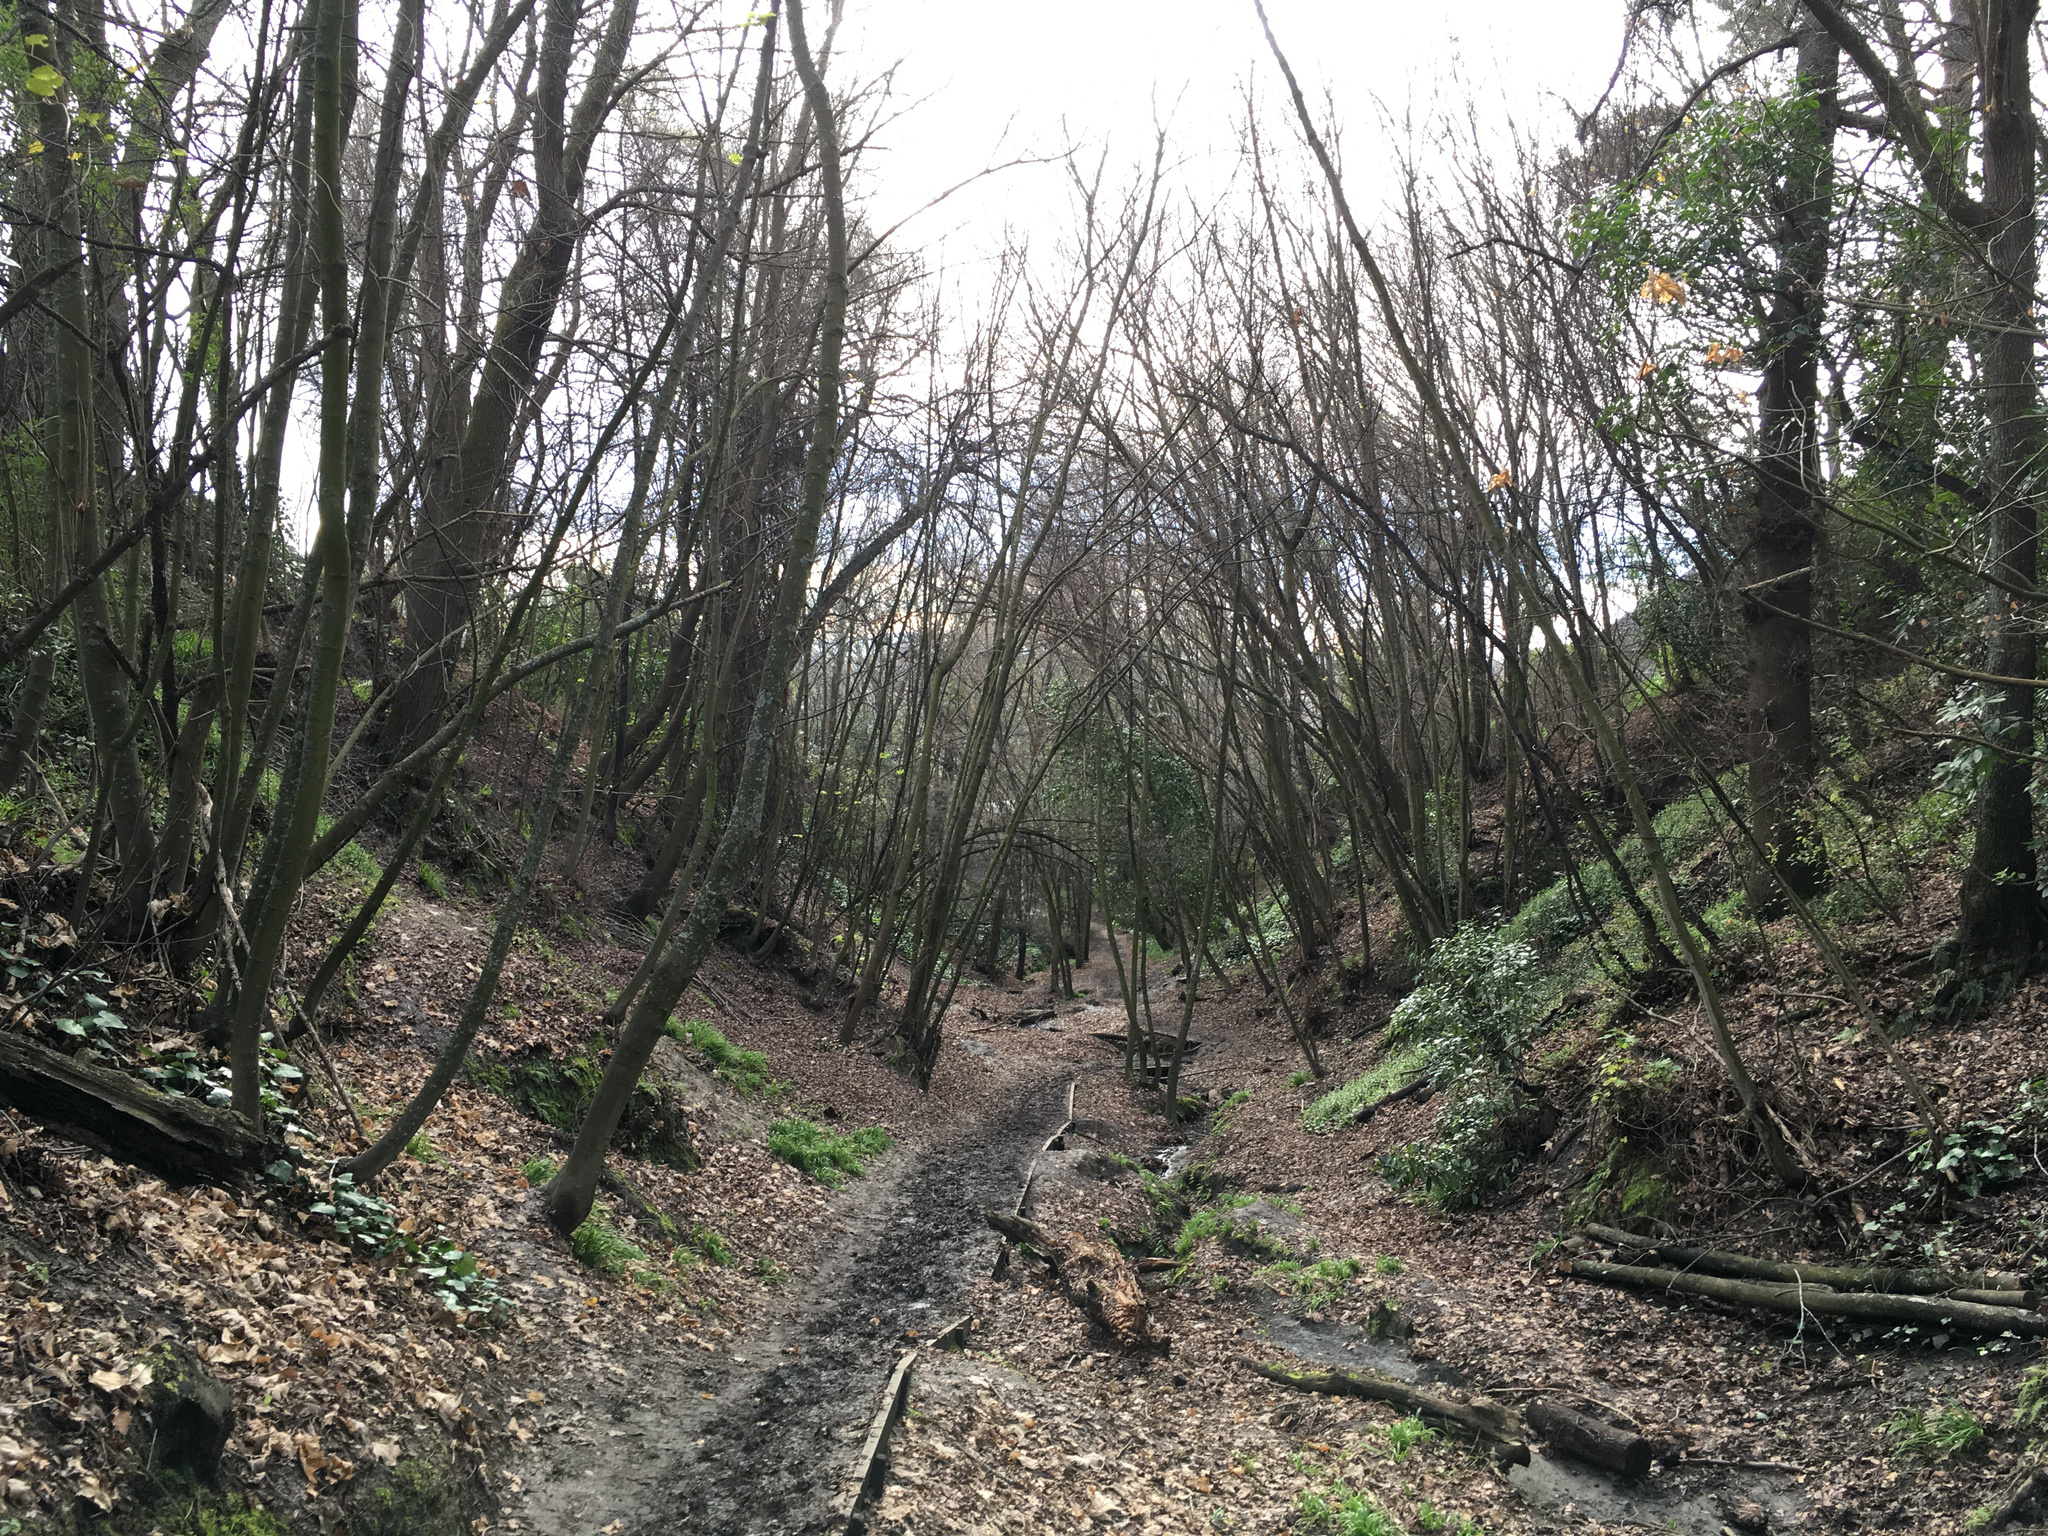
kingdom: Plantae
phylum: Tracheophyta
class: Magnoliopsida
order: Sapindales
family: Sapindaceae
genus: Acer
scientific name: Acer pseudoplatanus
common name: Sycamore
